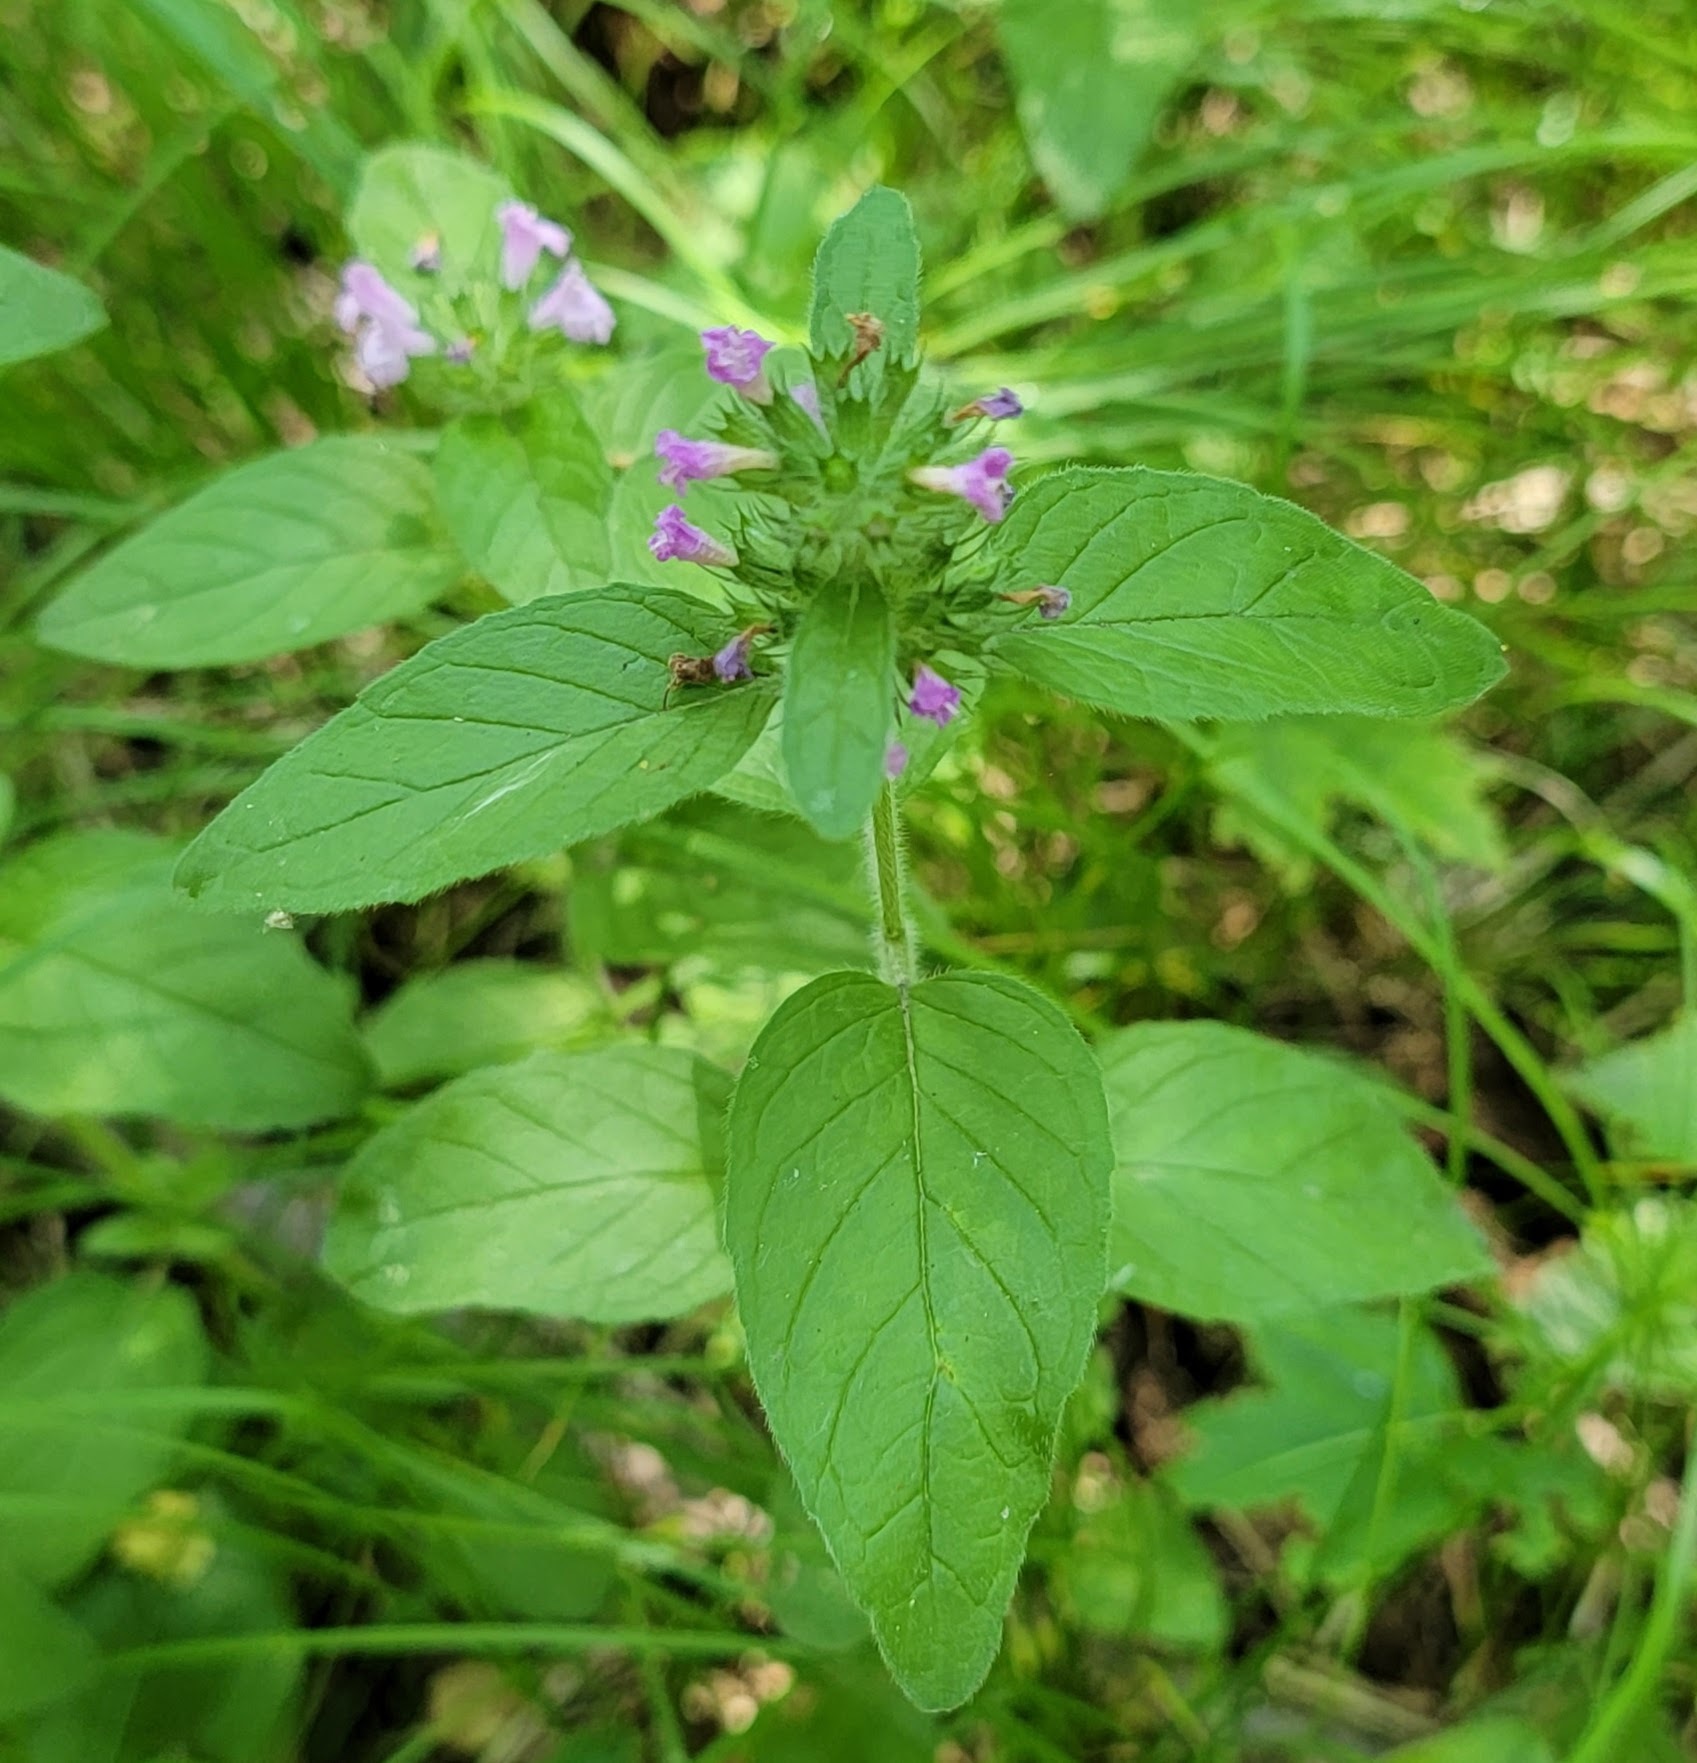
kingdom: Plantae
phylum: Tracheophyta
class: Magnoliopsida
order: Lamiales
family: Lamiaceae
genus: Clinopodium
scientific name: Clinopodium vulgare
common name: Wild basil
